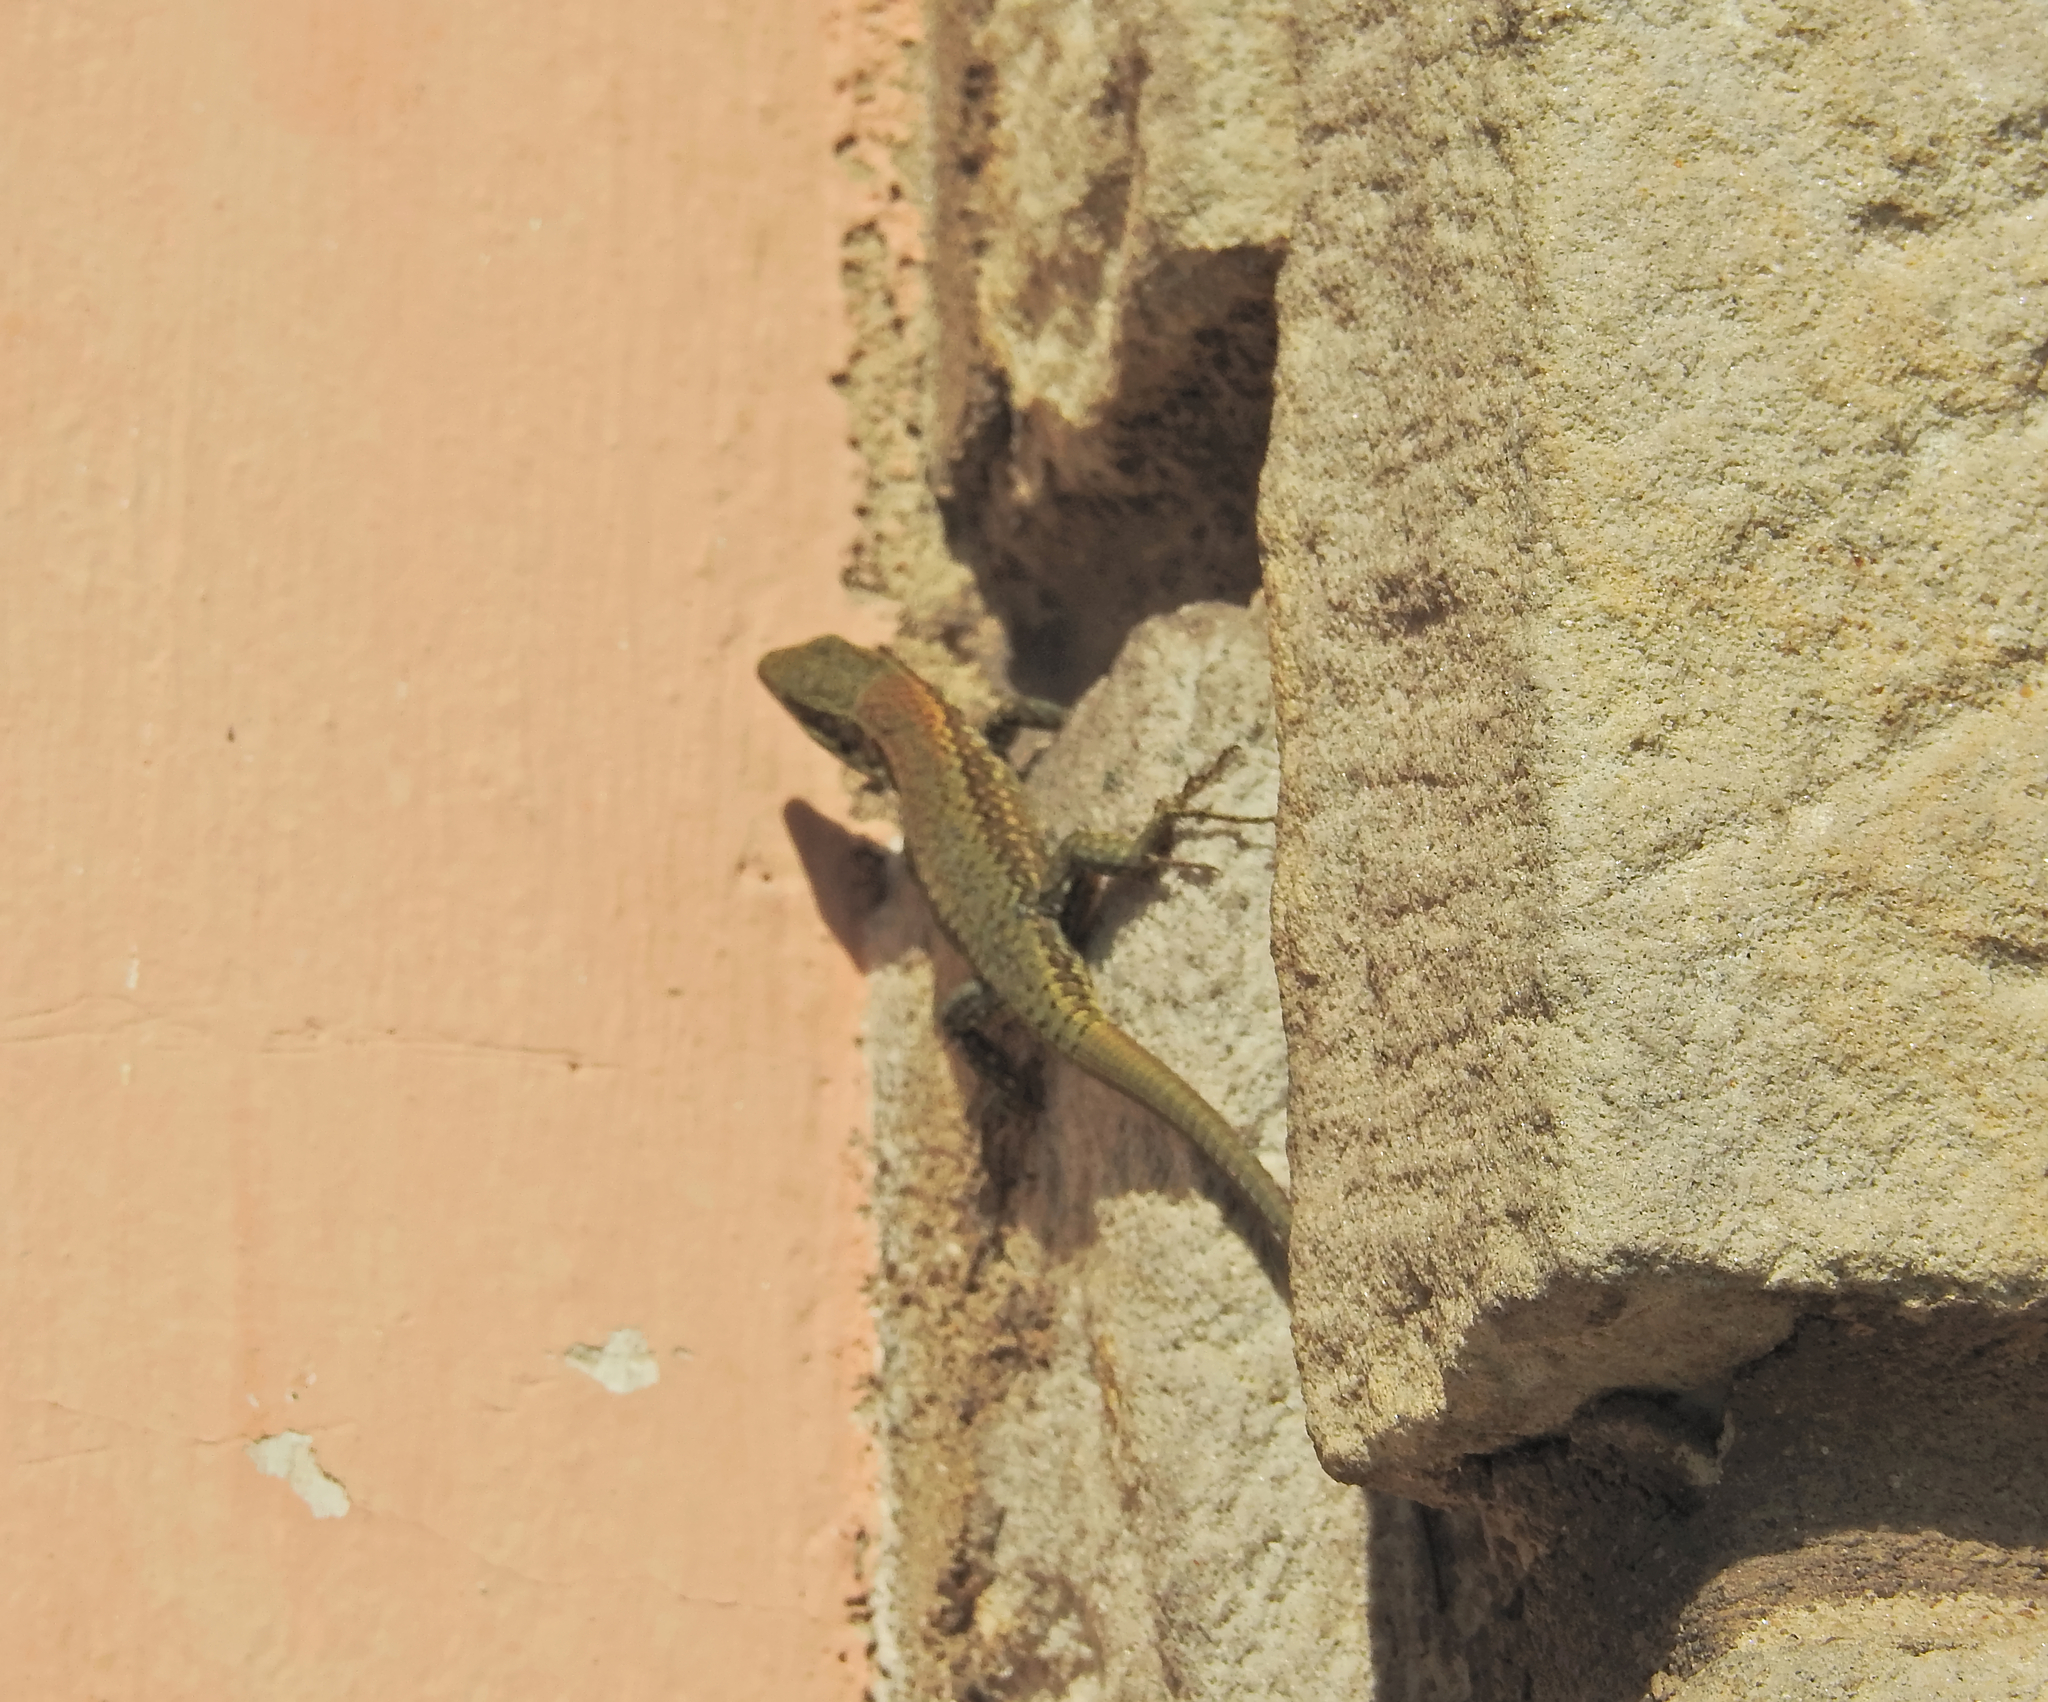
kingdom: Animalia
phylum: Chordata
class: Squamata
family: Lacertidae
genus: Podarcis
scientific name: Podarcis muralis
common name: Common wall lizard
